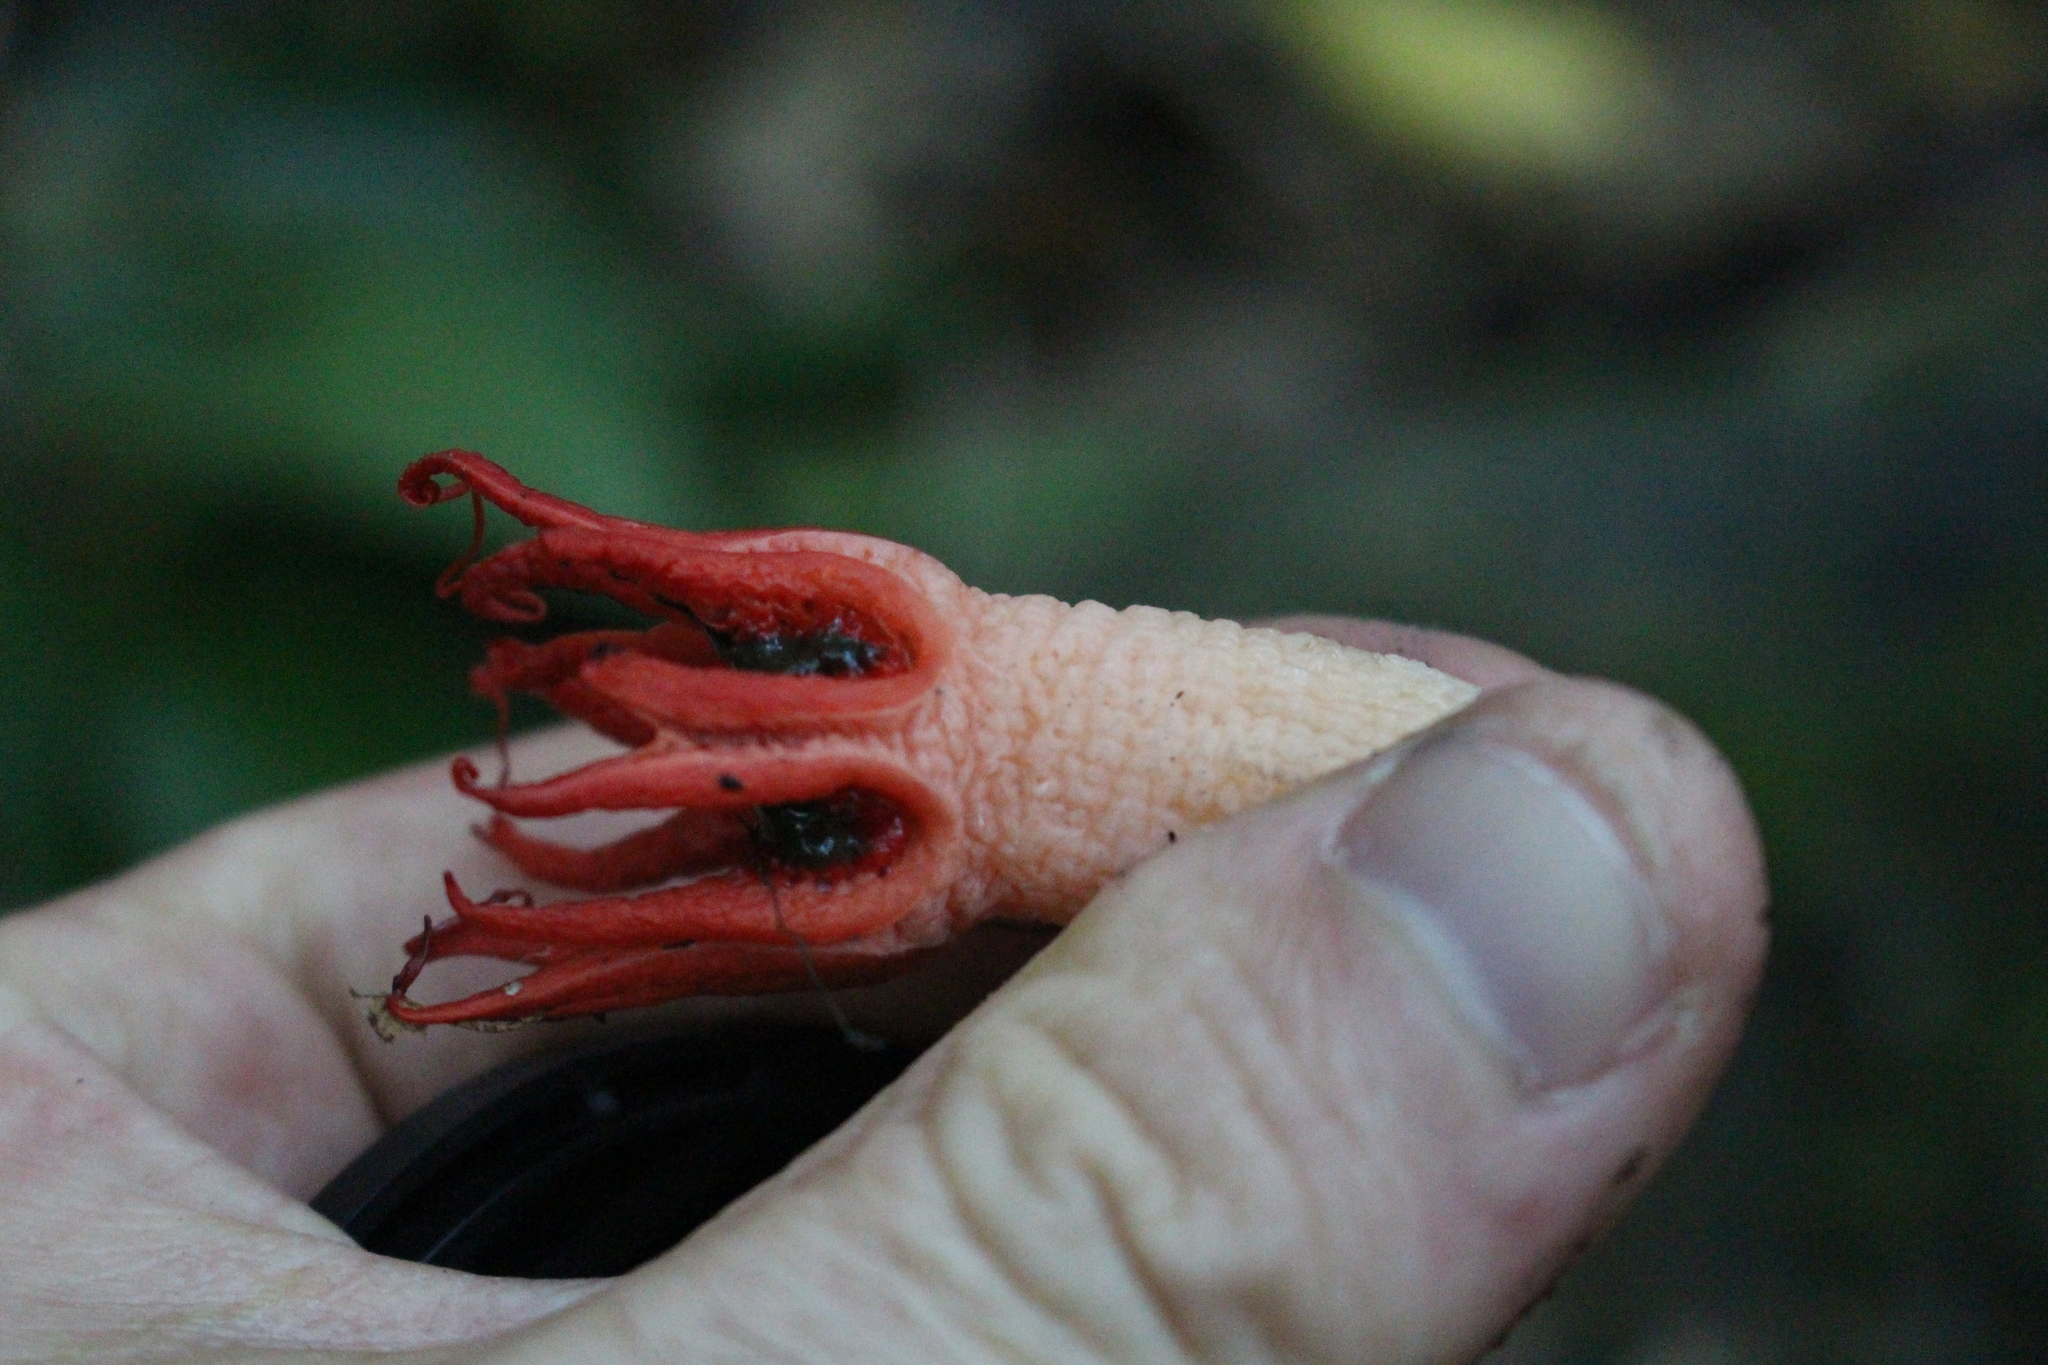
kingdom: Fungi
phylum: Basidiomycota
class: Agaricomycetes
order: Phallales
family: Phallaceae
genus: Aseroe
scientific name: Aseroe rubra
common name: Starfish fungus
